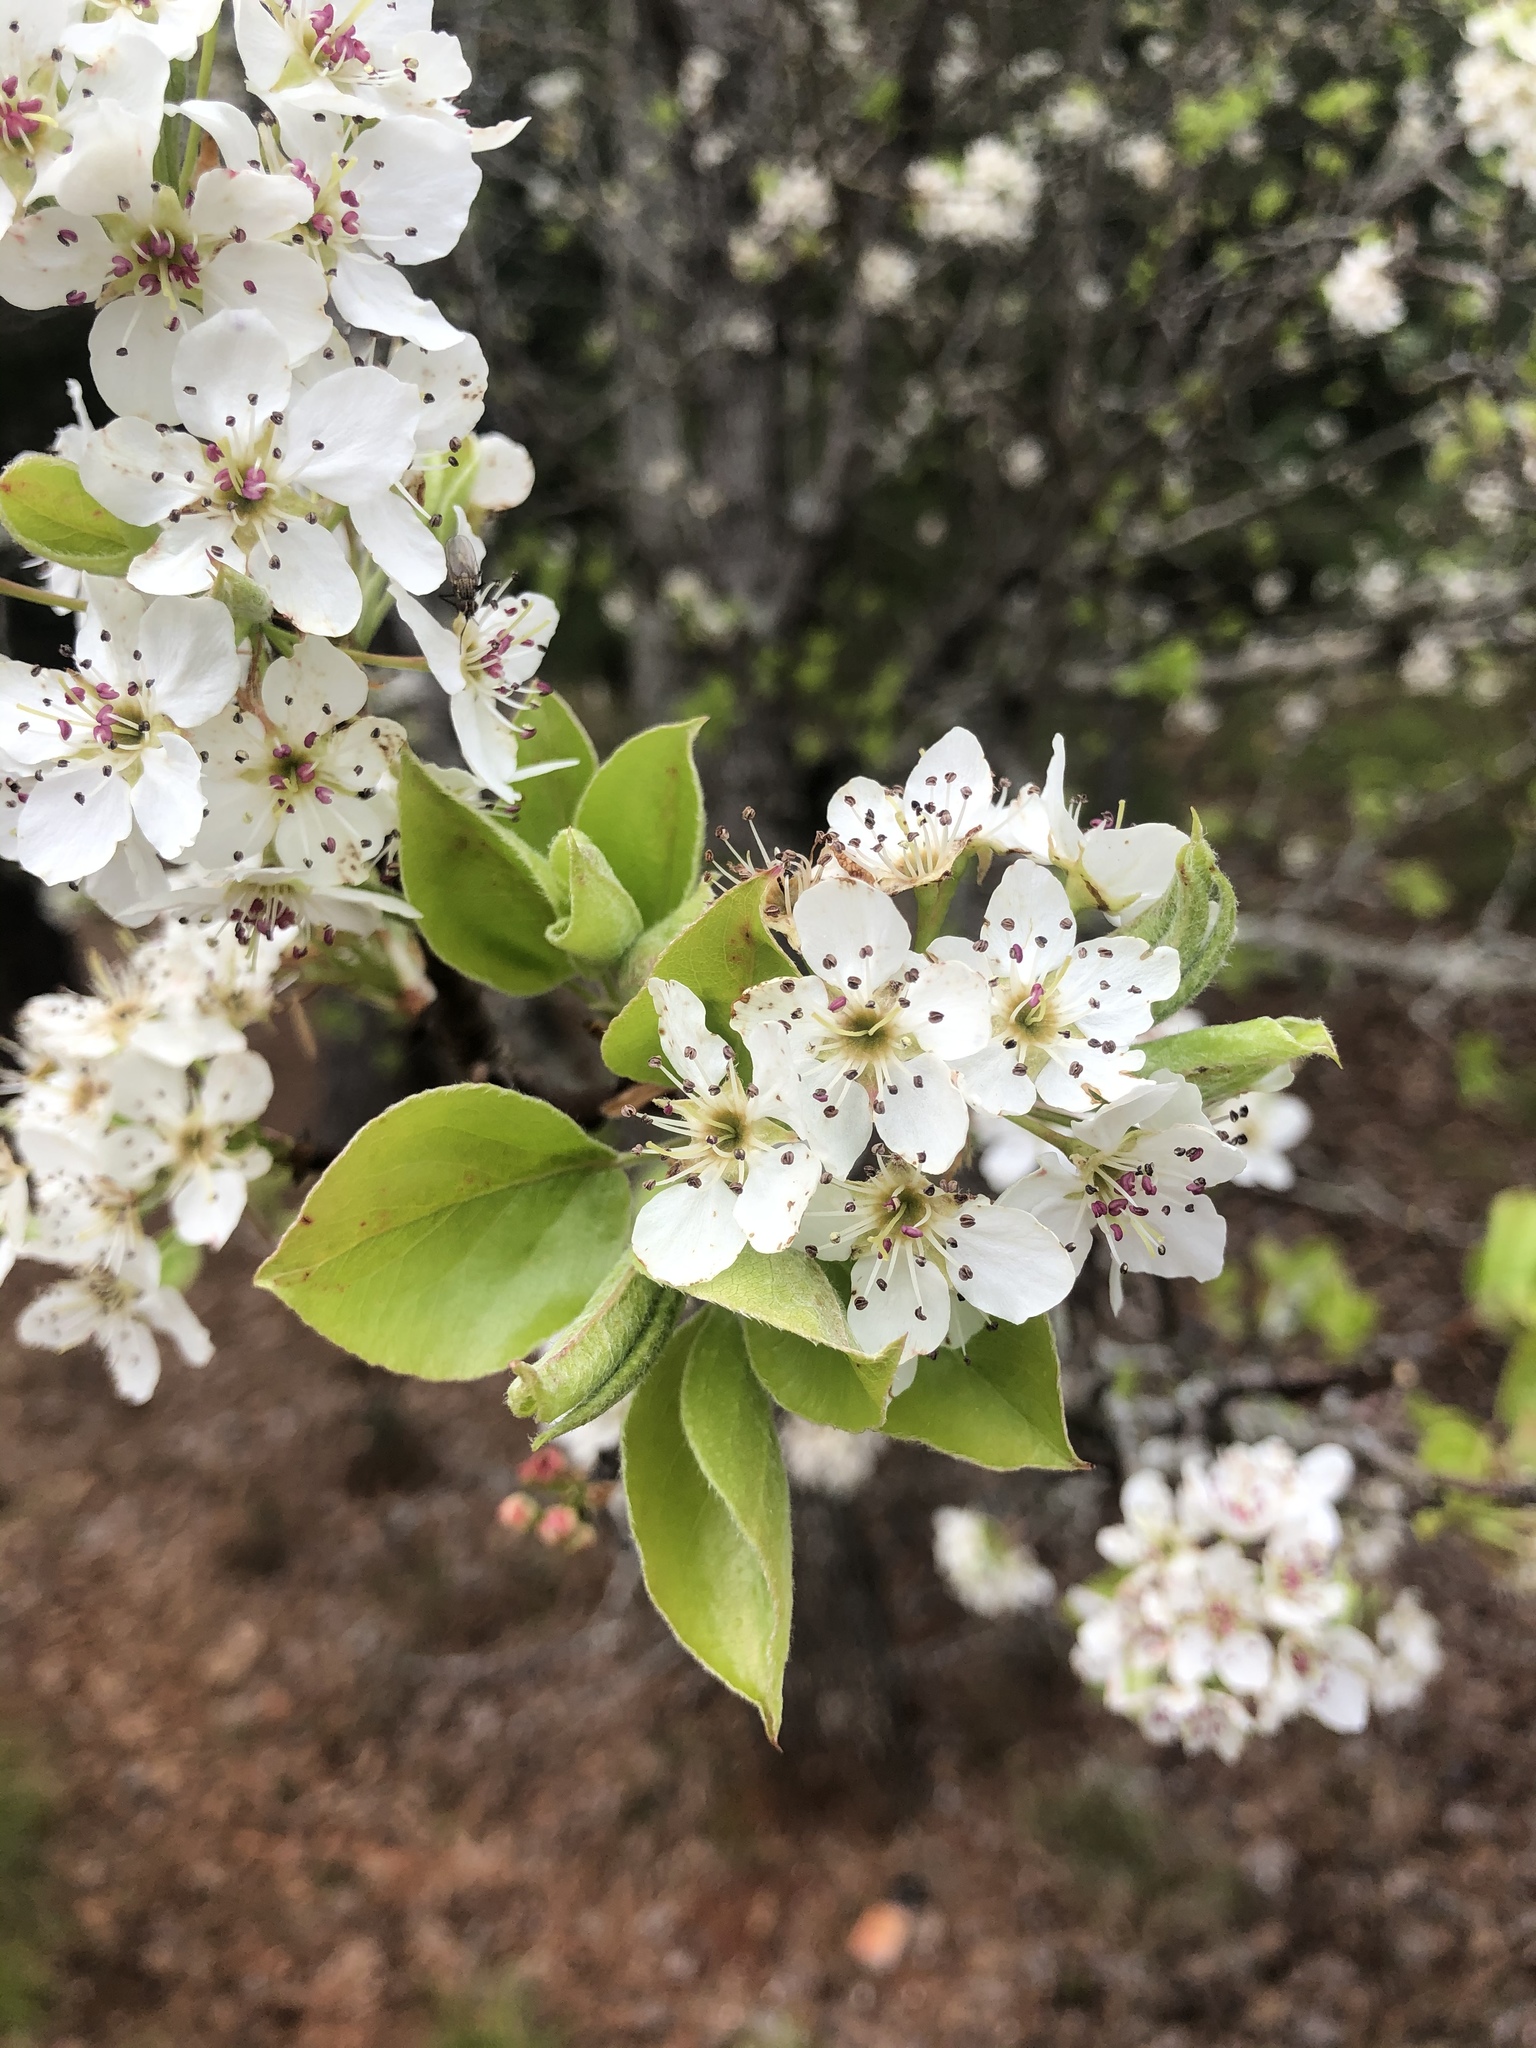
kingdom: Plantae
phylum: Tracheophyta
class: Magnoliopsida
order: Rosales
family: Rosaceae
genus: Pyrus
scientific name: Pyrus calleryana
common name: Callery pear
